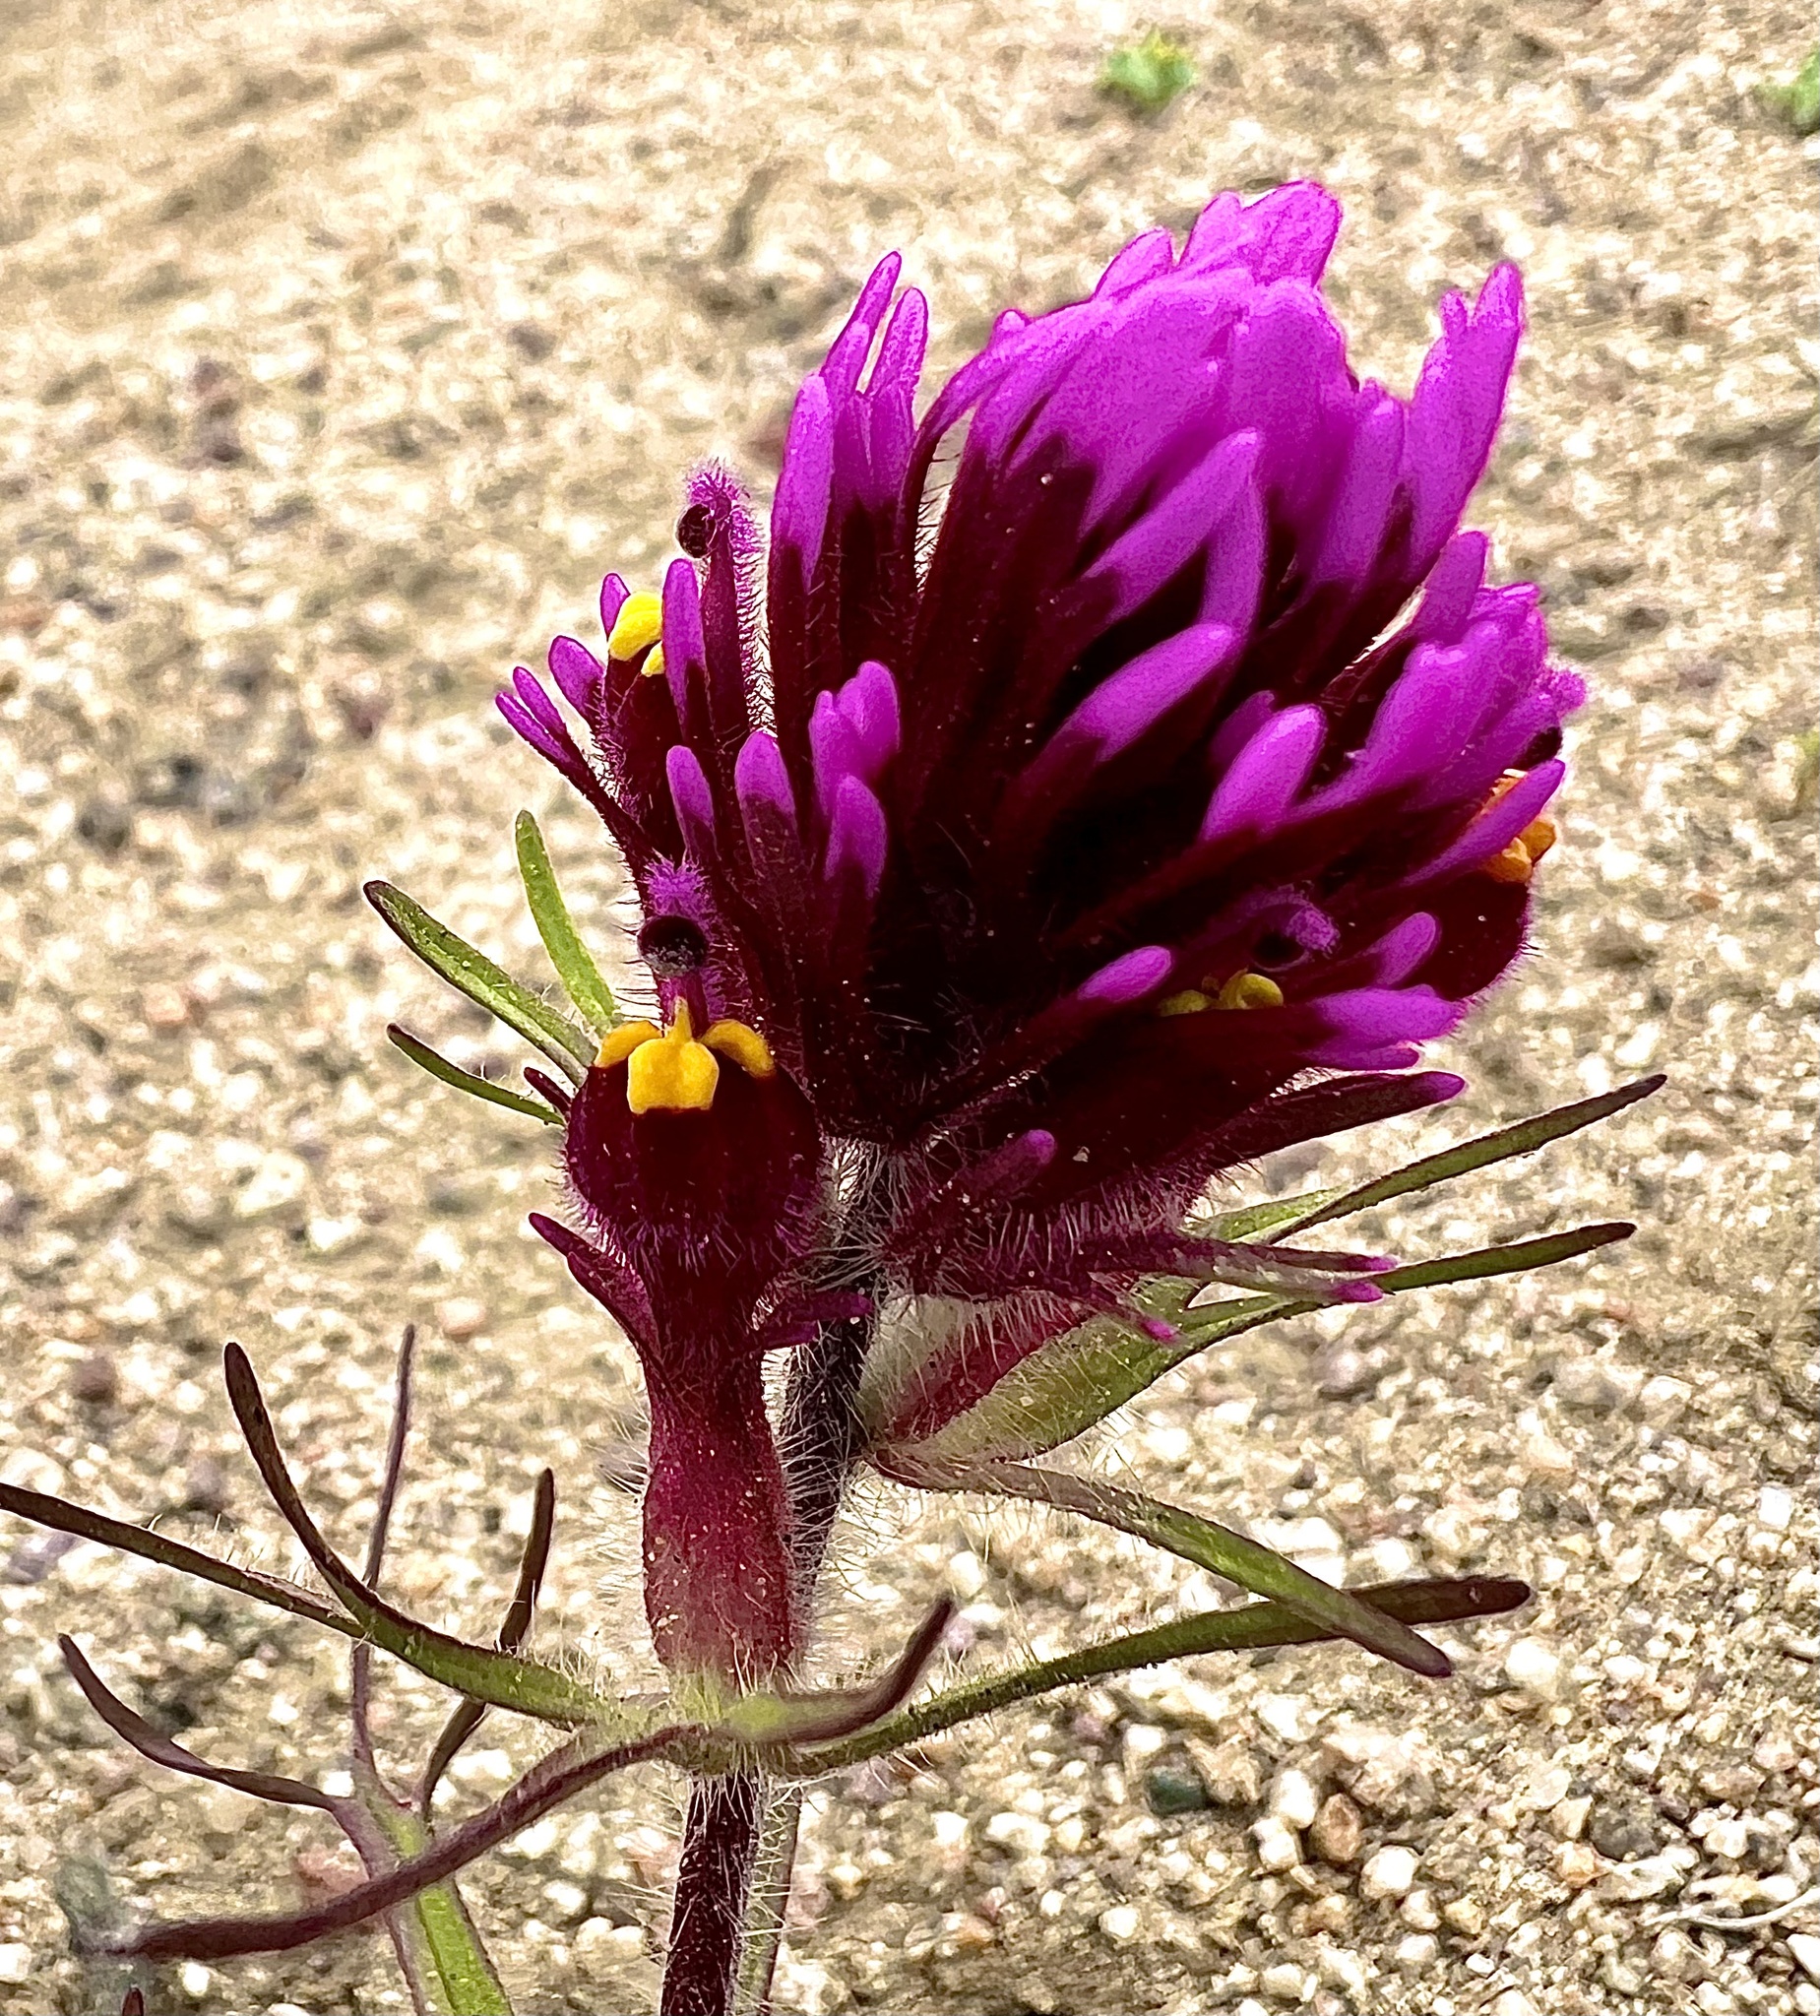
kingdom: Plantae
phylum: Tracheophyta
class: Magnoliopsida
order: Lamiales
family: Orobanchaceae
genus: Castilleja
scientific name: Castilleja exserta
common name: Purple owl-clover
